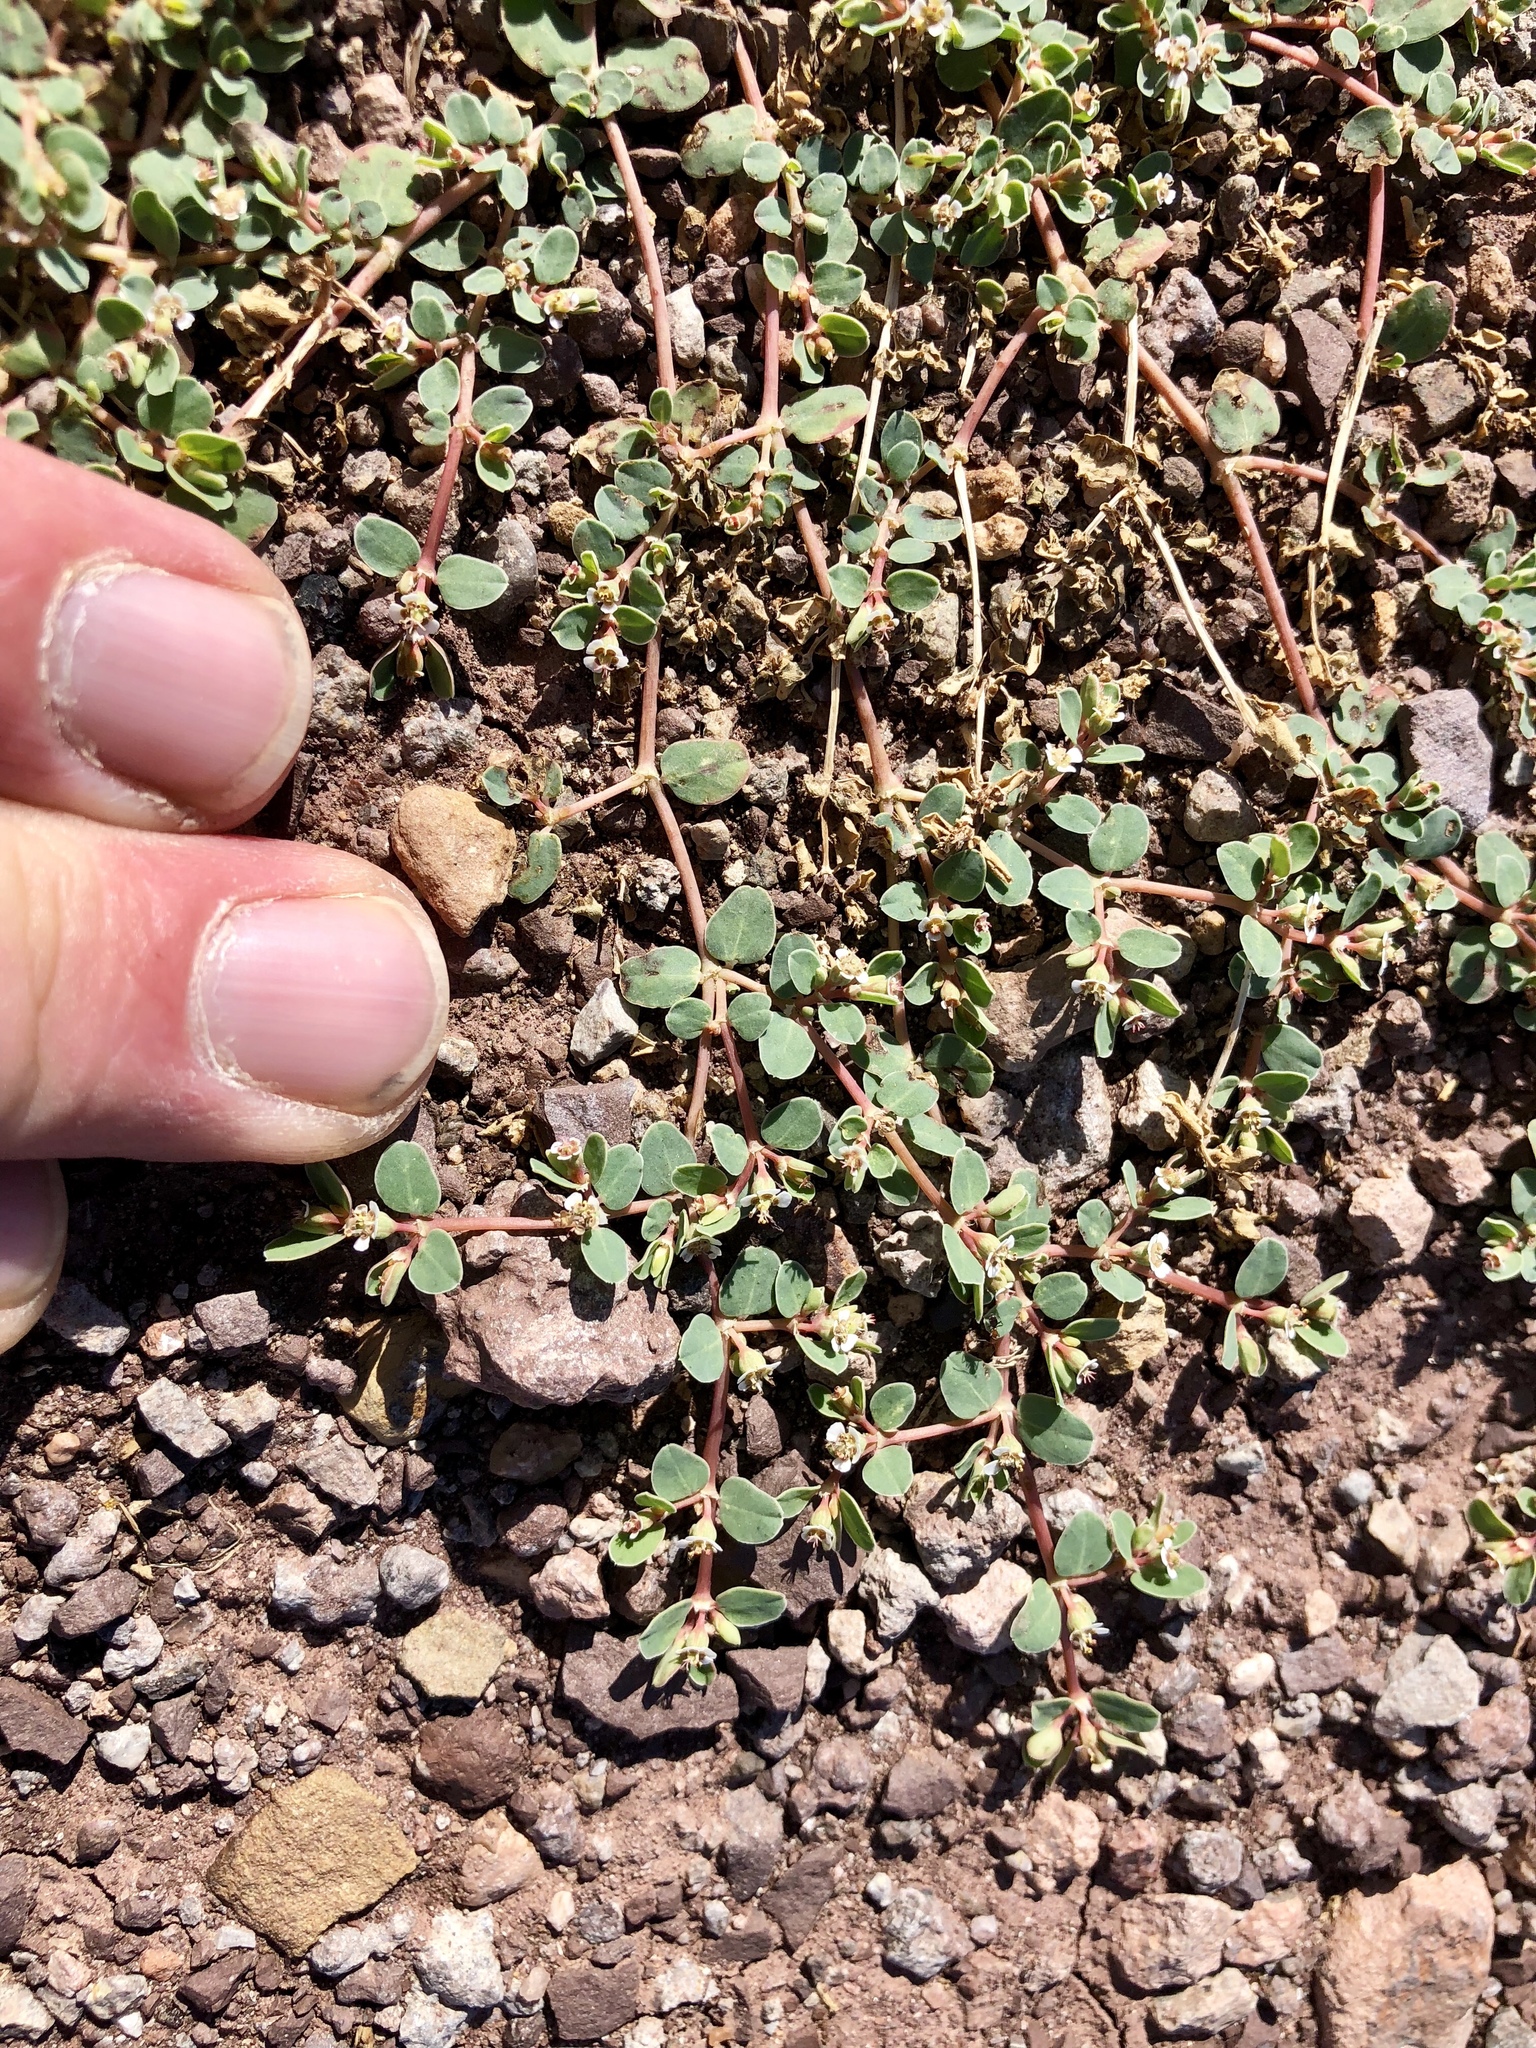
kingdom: Plantae
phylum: Tracheophyta
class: Magnoliopsida
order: Malpighiales
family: Euphorbiaceae
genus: Euphorbia
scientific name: Euphorbia albomarginata
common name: Whitemargin sandmat
